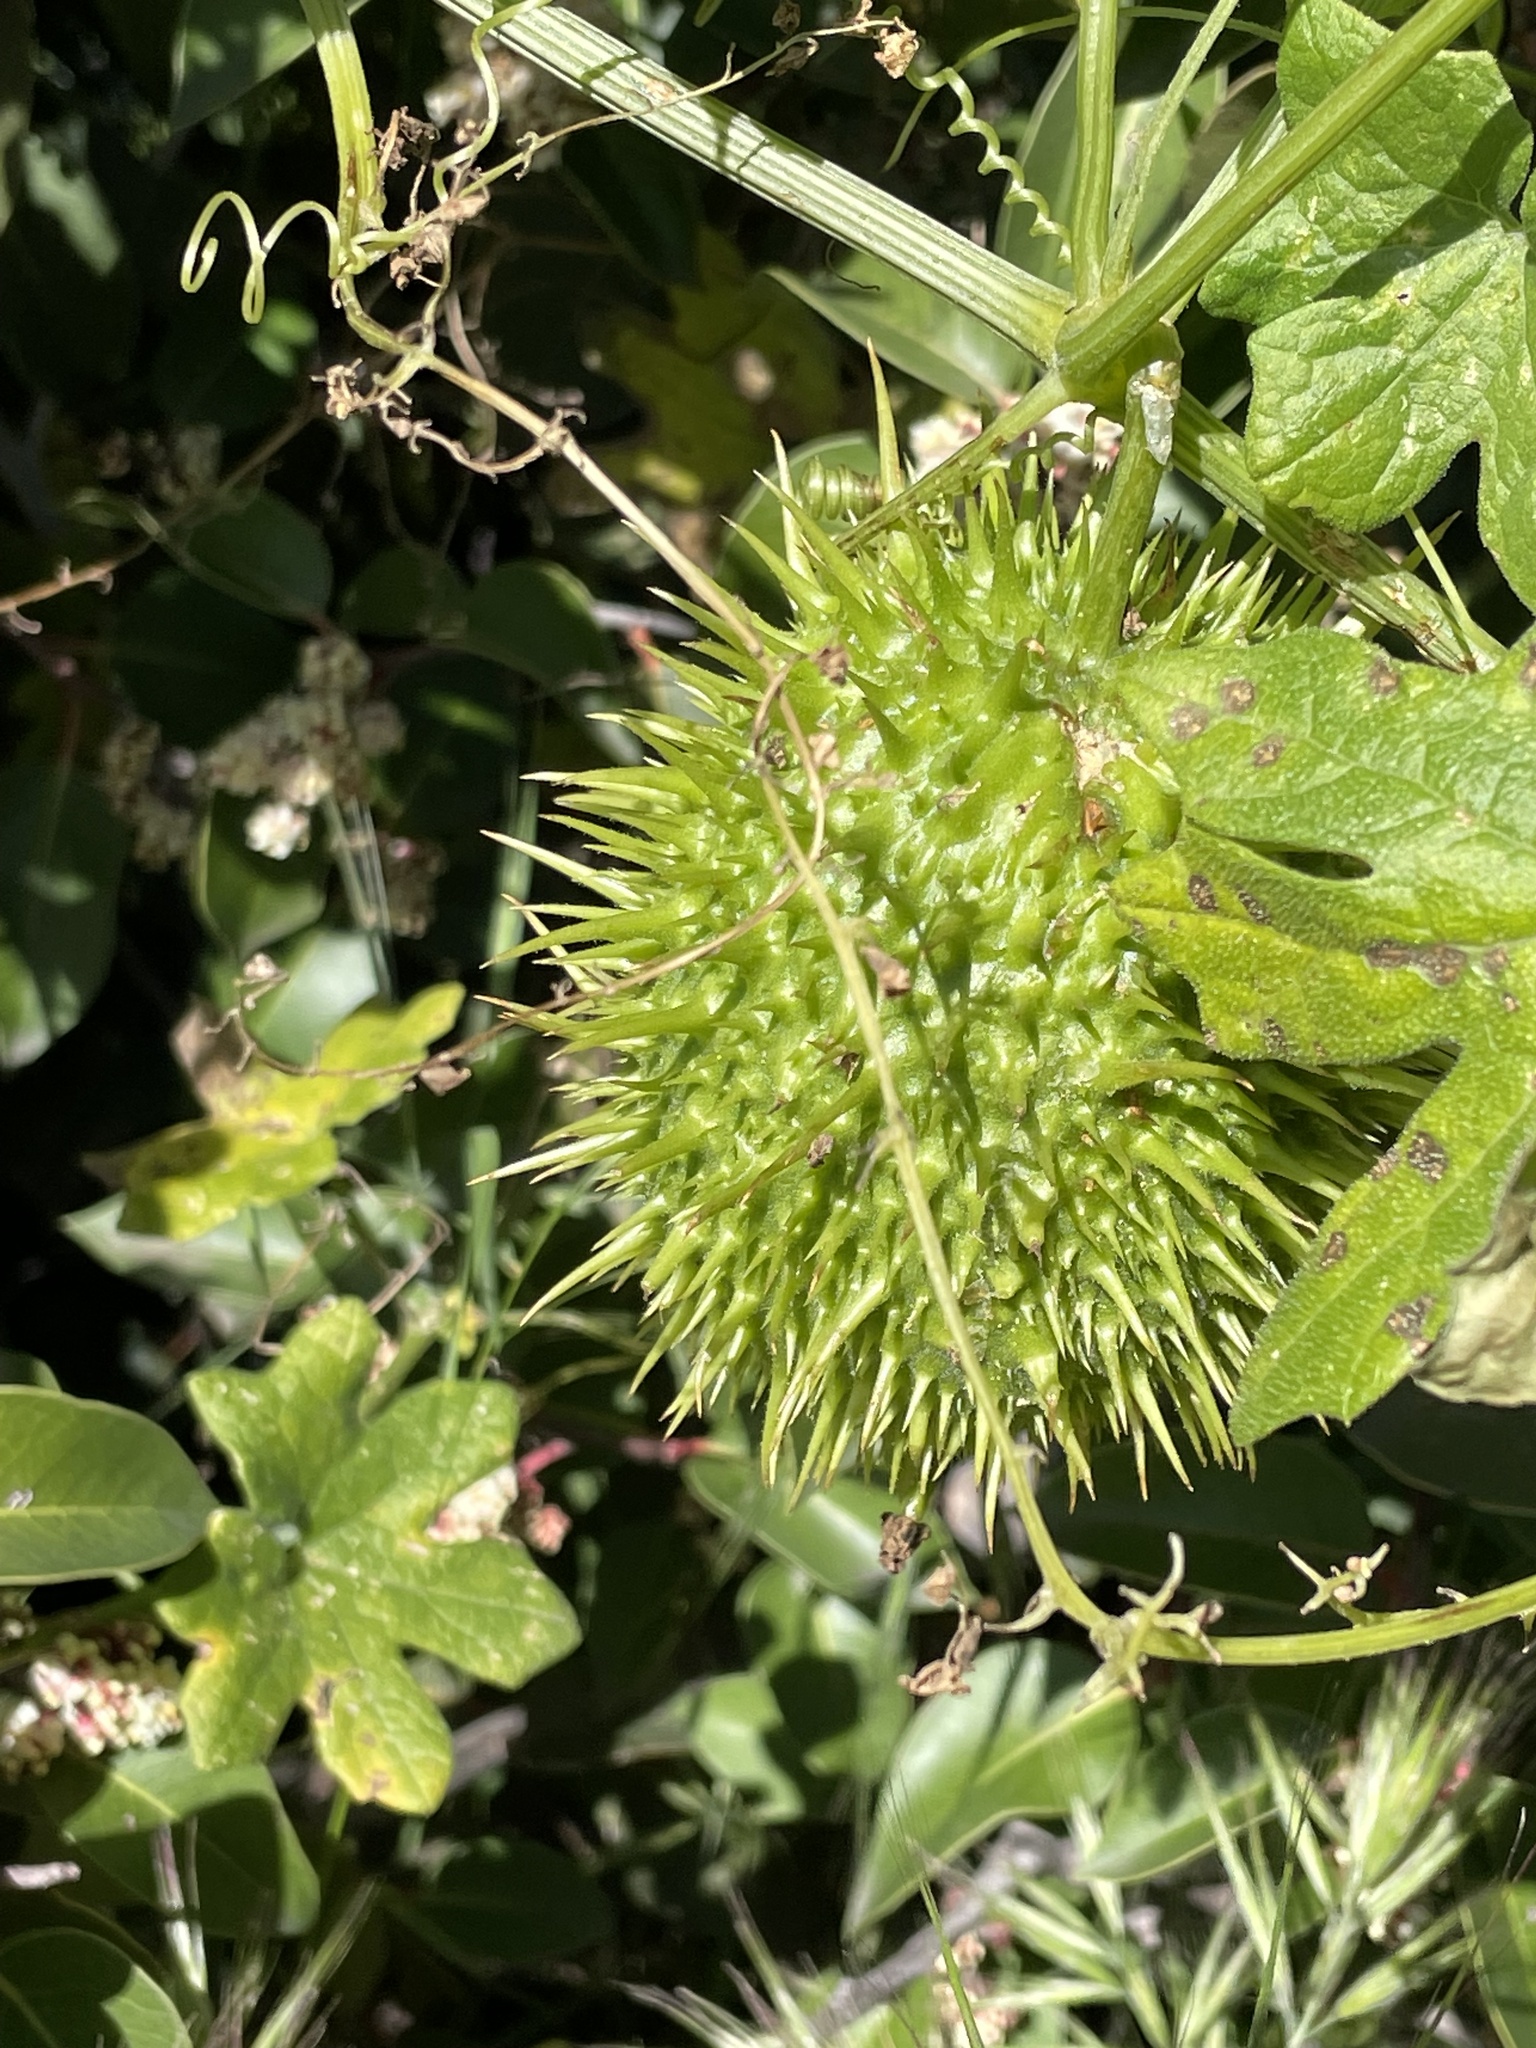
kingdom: Plantae
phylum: Tracheophyta
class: Magnoliopsida
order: Cucurbitales
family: Cucurbitaceae
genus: Marah
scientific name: Marah macrocarpa
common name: Cucamonga manroot
